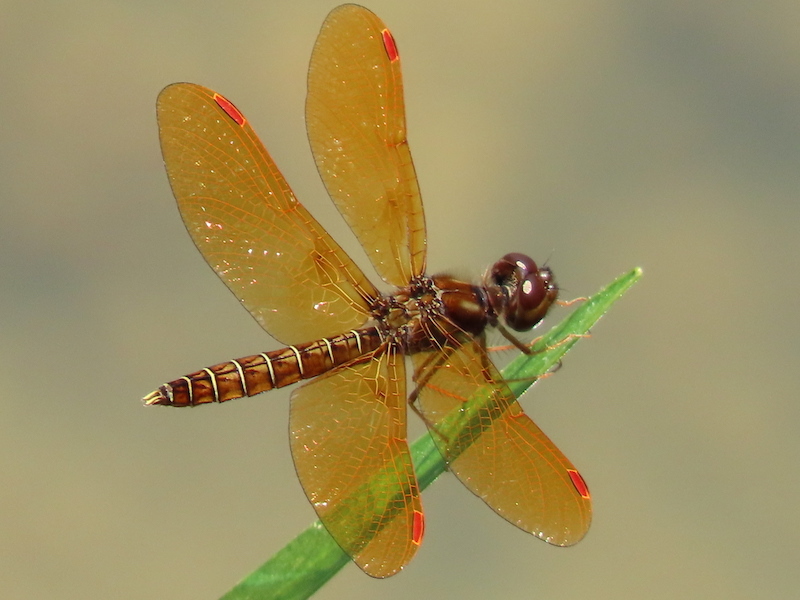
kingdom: Animalia
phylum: Arthropoda
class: Insecta
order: Odonata
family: Libellulidae
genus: Perithemis
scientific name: Perithemis tenera
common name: Eastern amberwing
